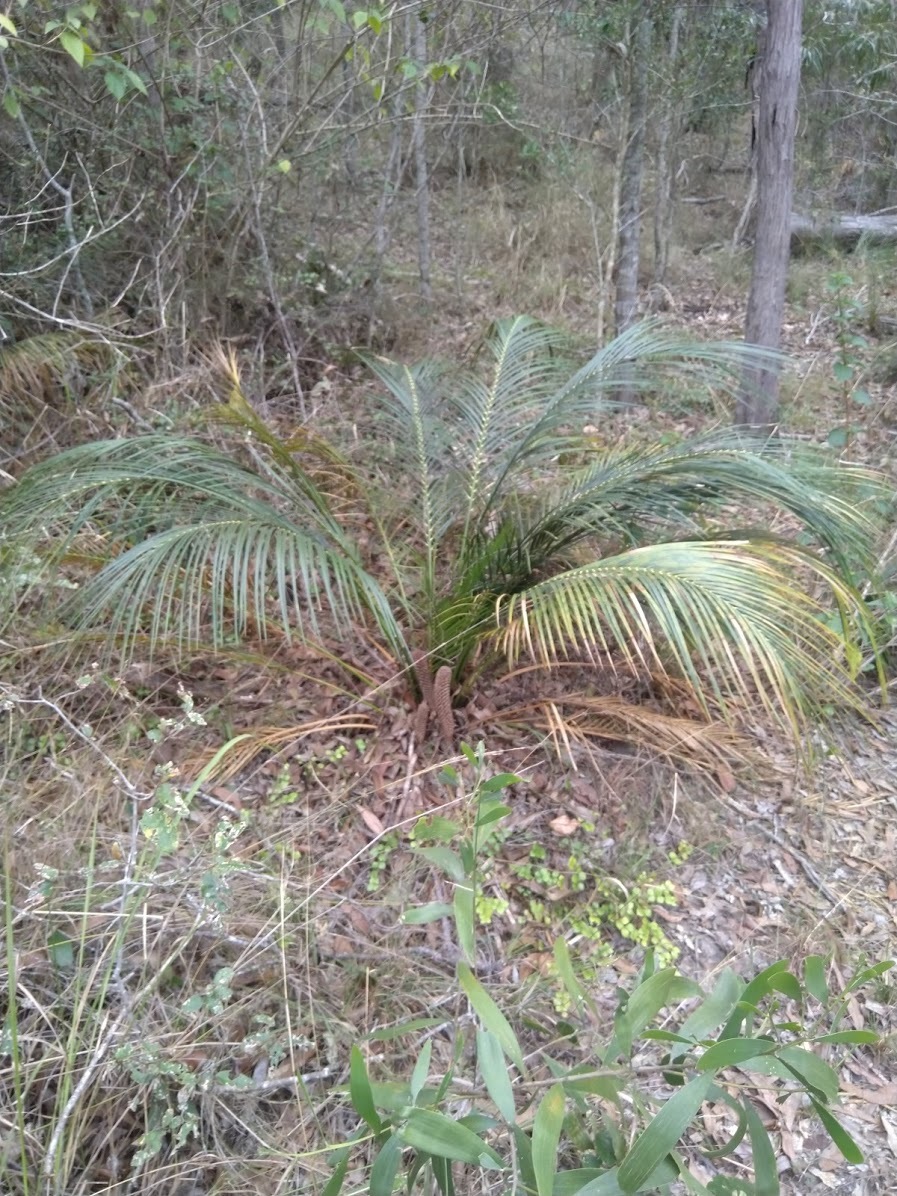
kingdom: Plantae
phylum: Tracheophyta
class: Cycadopsida
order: Cycadales
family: Zamiaceae
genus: Macrozamia
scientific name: Macrozamia mountperriensis
